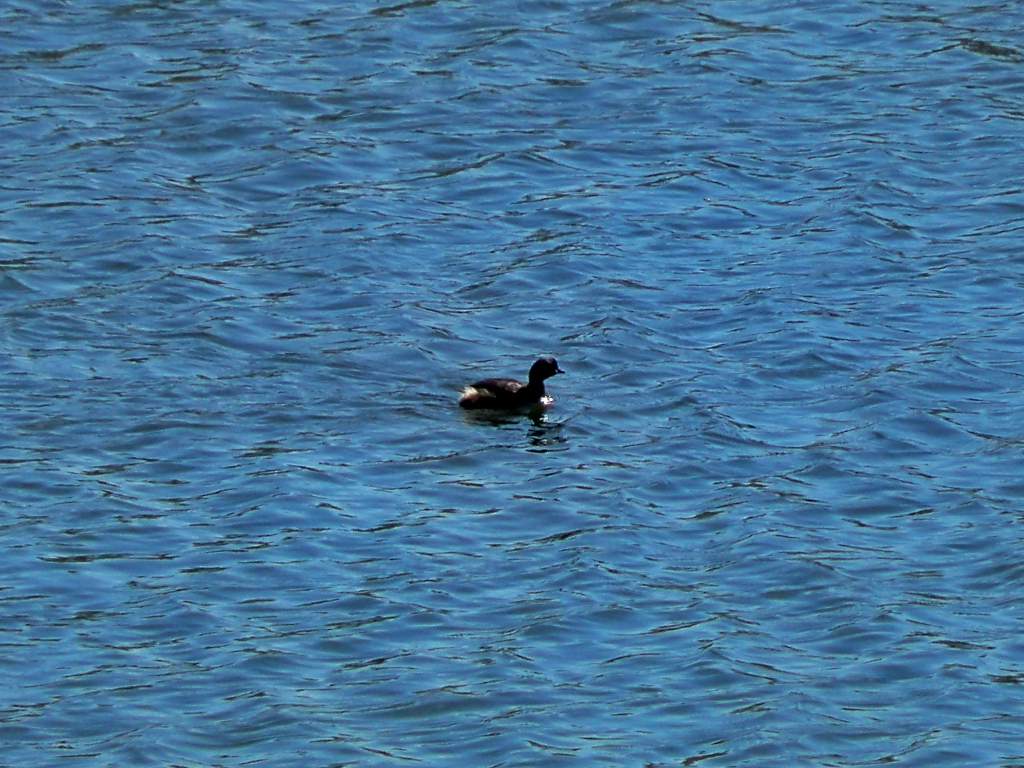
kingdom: Animalia
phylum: Chordata
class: Aves
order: Podicipediformes
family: Podicipedidae
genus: Tachybaptus
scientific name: Tachybaptus ruficollis
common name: Little grebe
